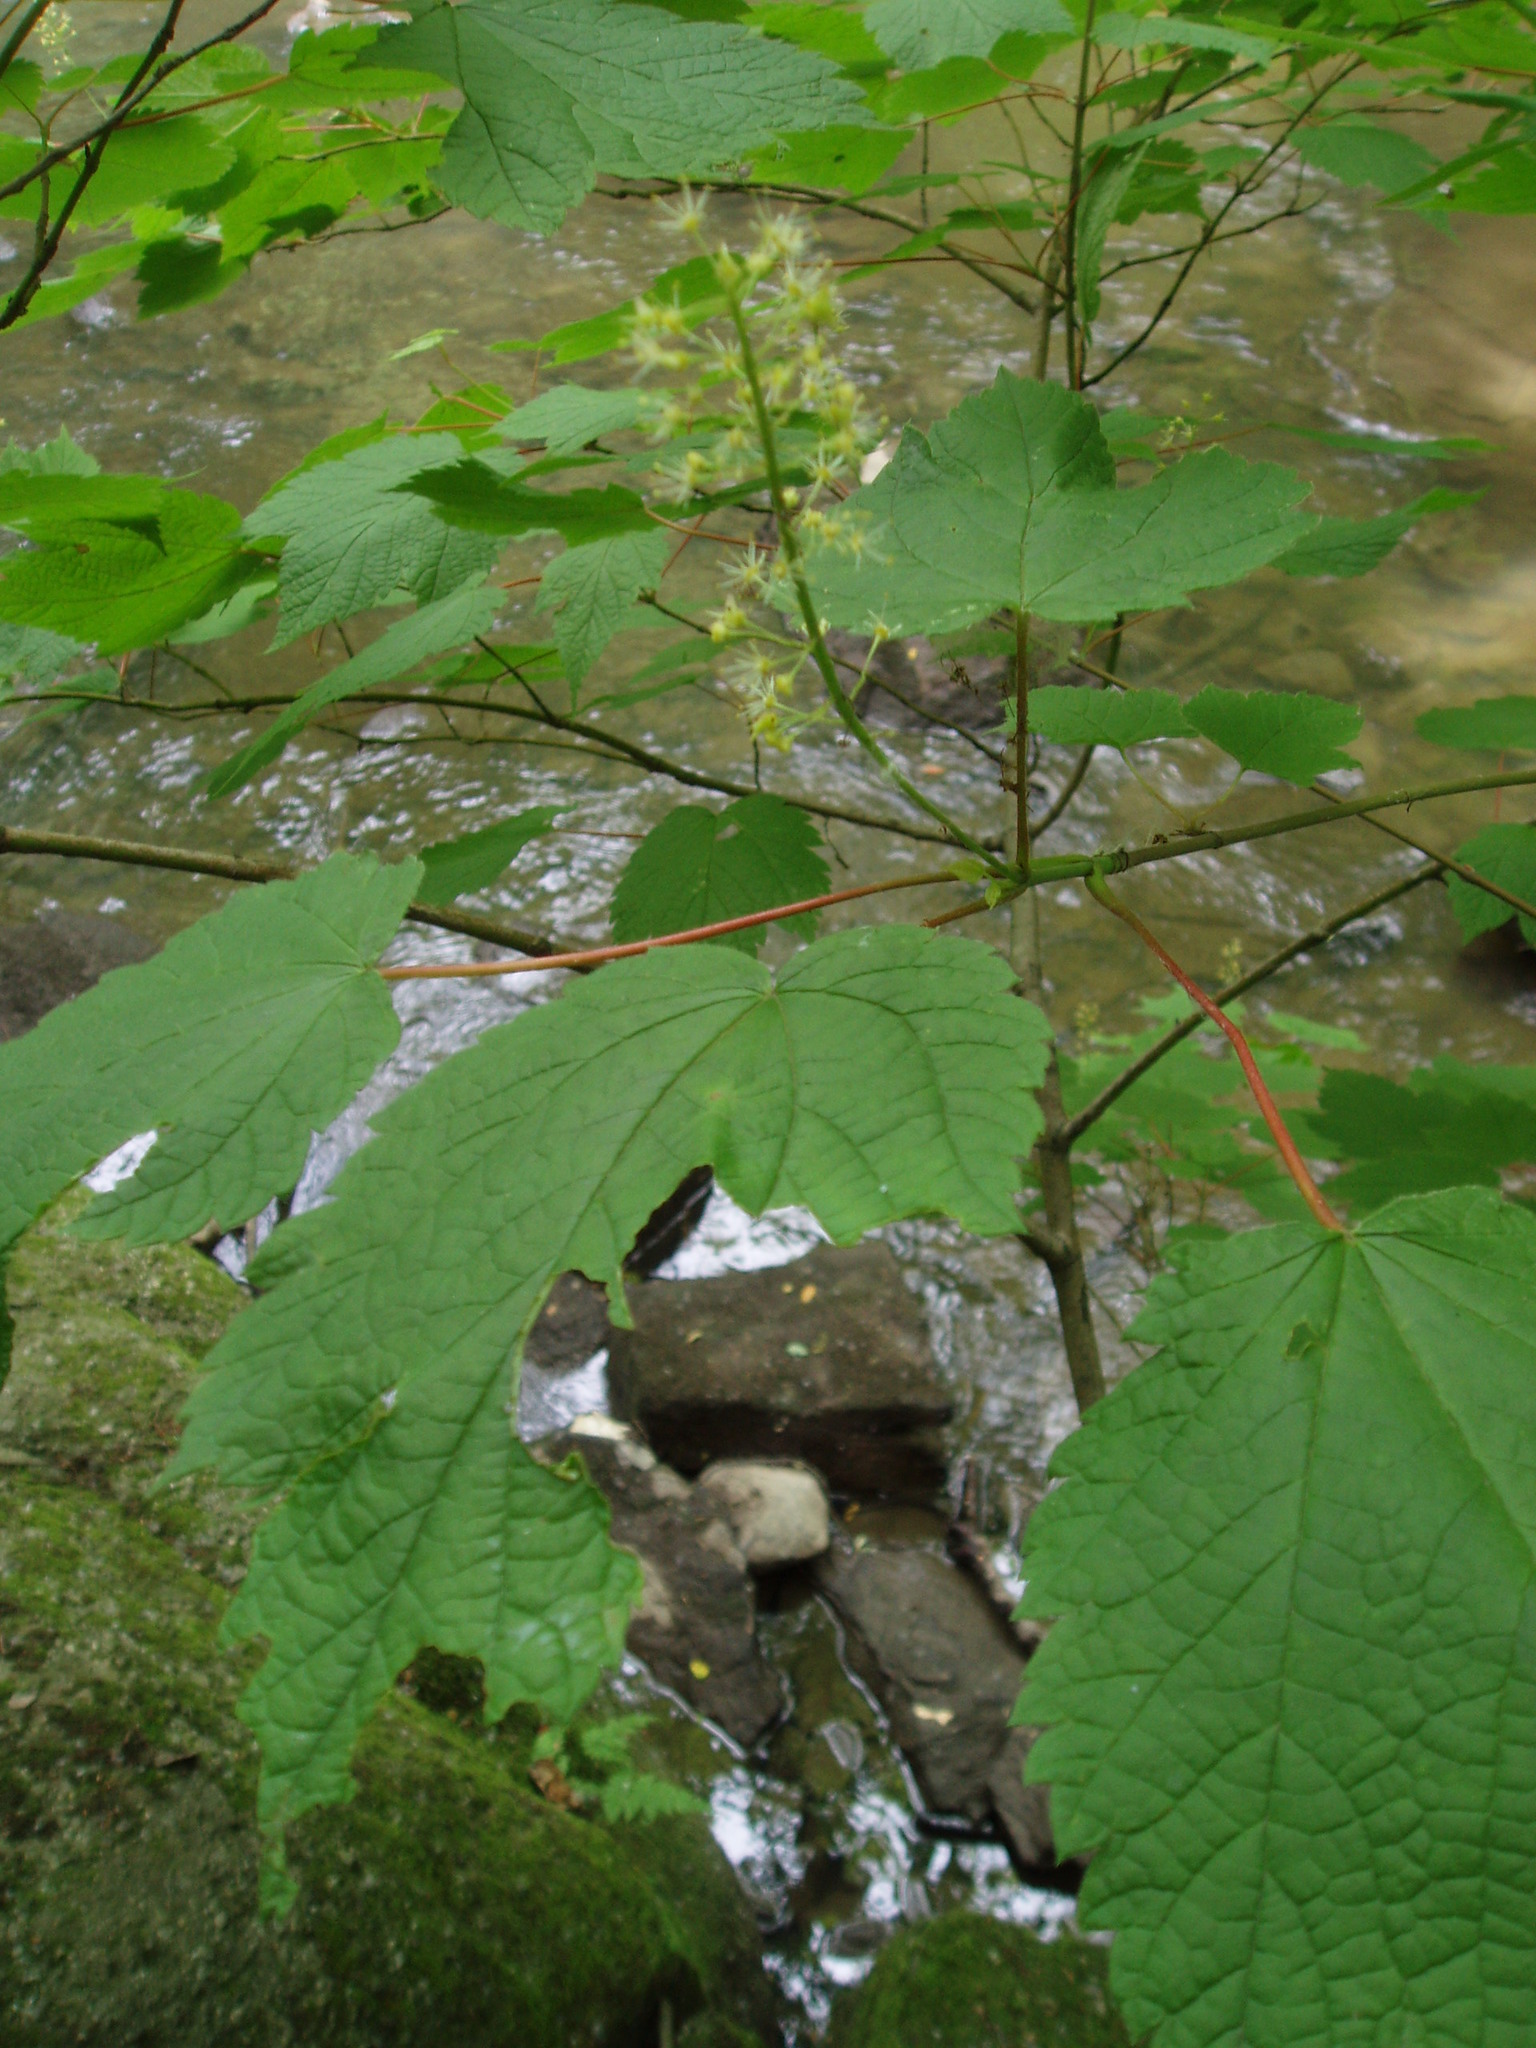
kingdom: Plantae
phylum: Tracheophyta
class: Magnoliopsida
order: Sapindales
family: Sapindaceae
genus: Acer
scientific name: Acer spicatum
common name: Mountain maple
